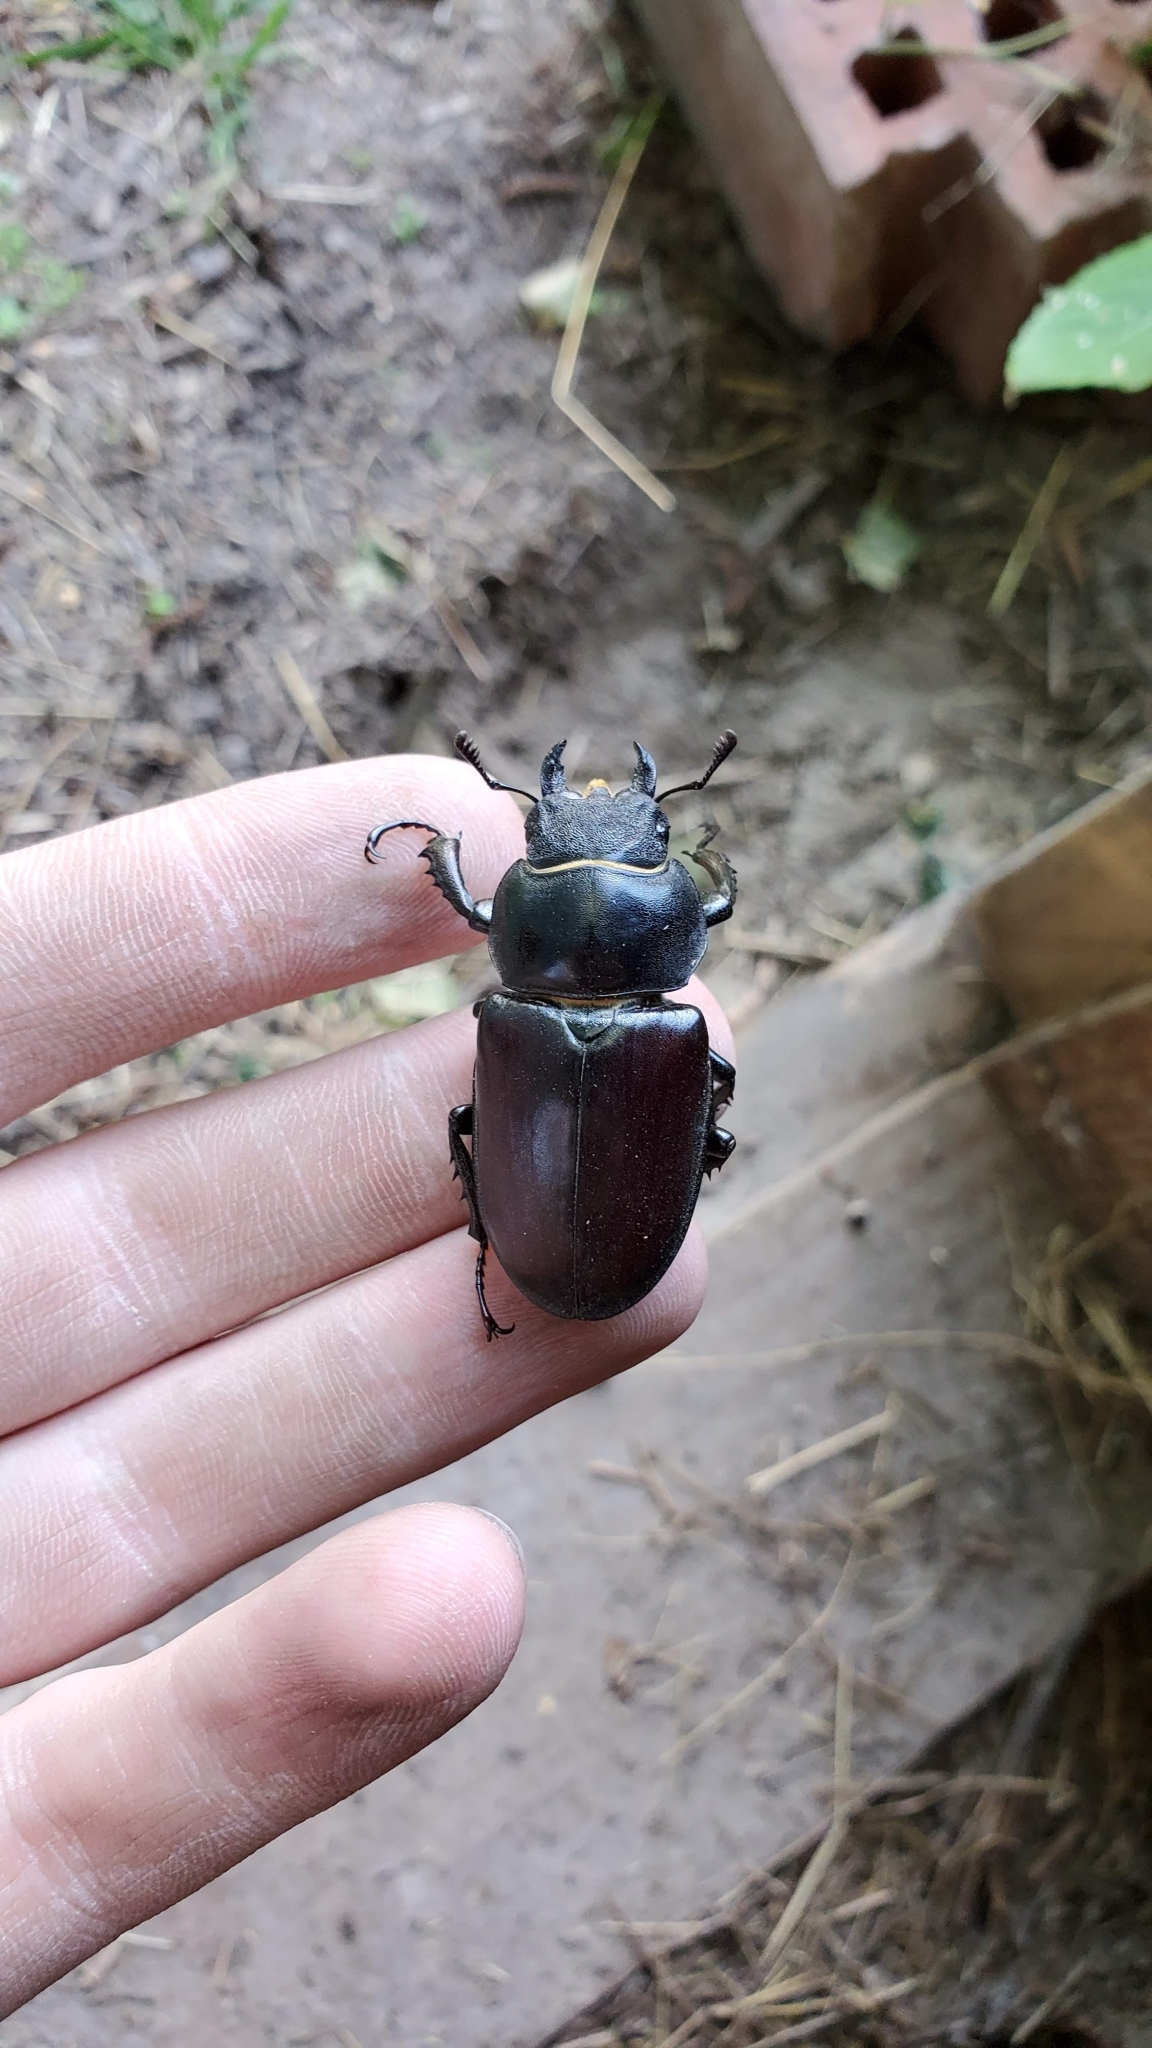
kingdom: Animalia
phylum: Arthropoda
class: Insecta
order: Coleoptera
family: Lucanidae
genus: Lucanus
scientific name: Lucanus cervus
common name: Stag beetle
